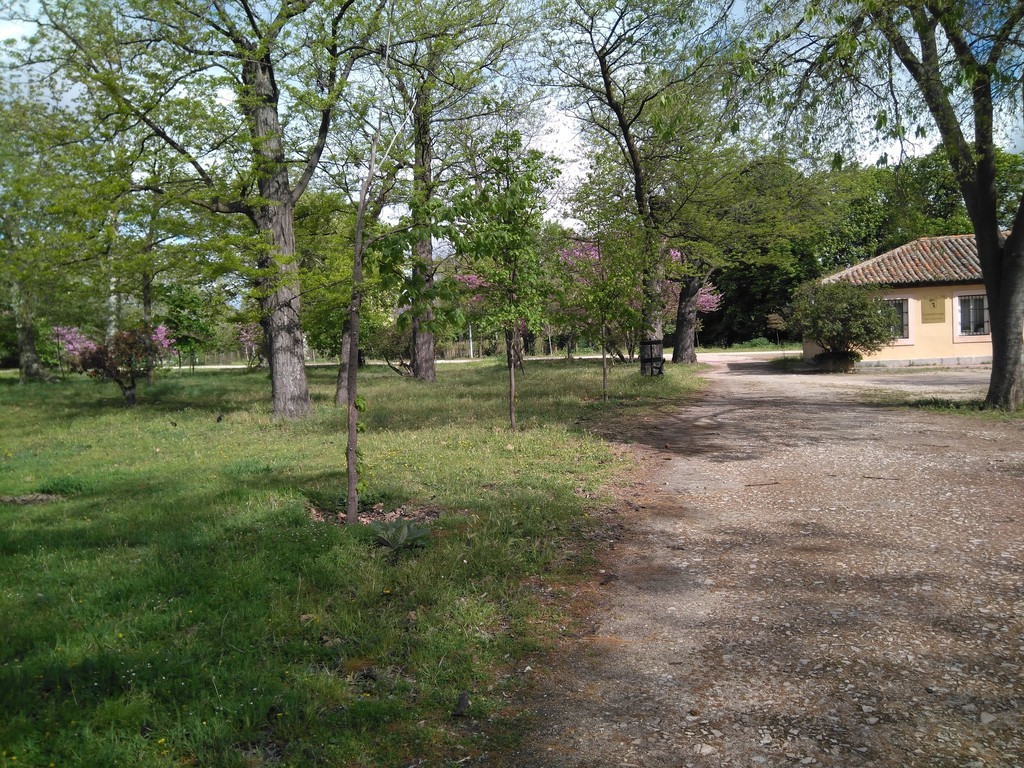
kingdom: Animalia
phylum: Chordata
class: Aves
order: Passeriformes
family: Corvidae
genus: Coloeus
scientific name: Coloeus monedula
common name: Western jackdaw
